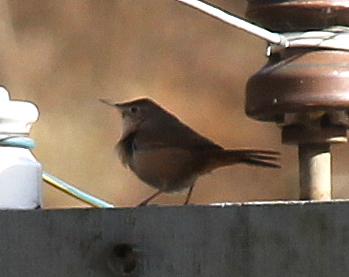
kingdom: Animalia
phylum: Chordata
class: Aves
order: Passeriformes
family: Troglodytidae
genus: Troglodytes
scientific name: Troglodytes aedon
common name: House wren
